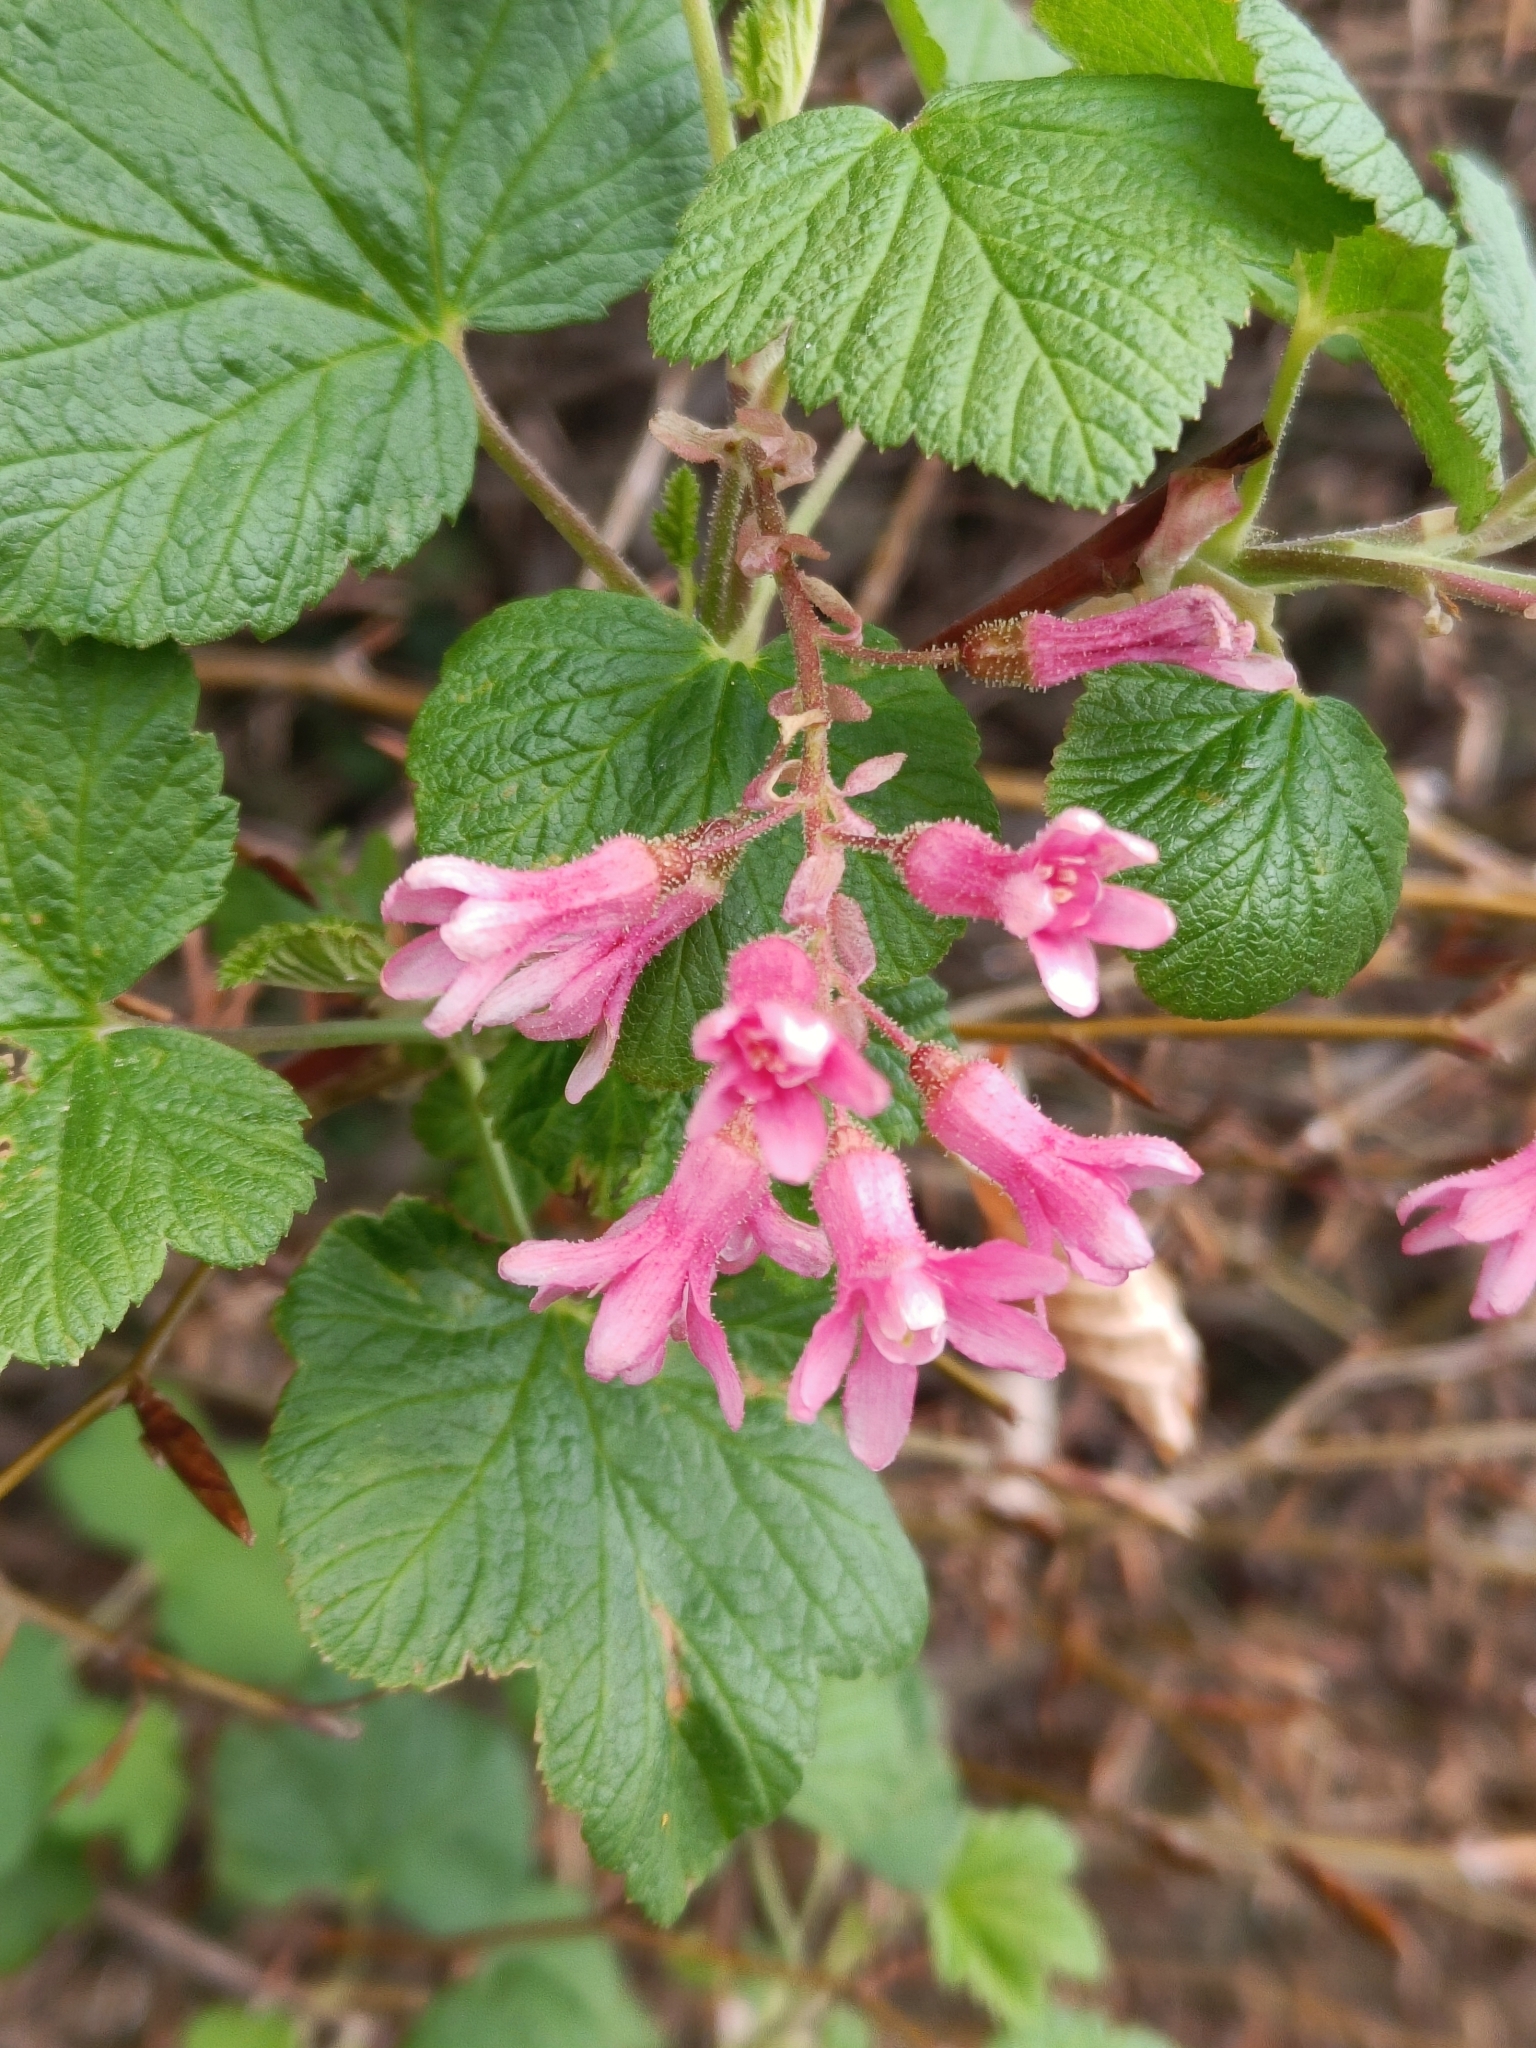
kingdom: Plantae
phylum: Tracheophyta
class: Magnoliopsida
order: Saxifragales
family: Grossulariaceae
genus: Ribes
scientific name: Ribes sanguineum
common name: Flowering currant
